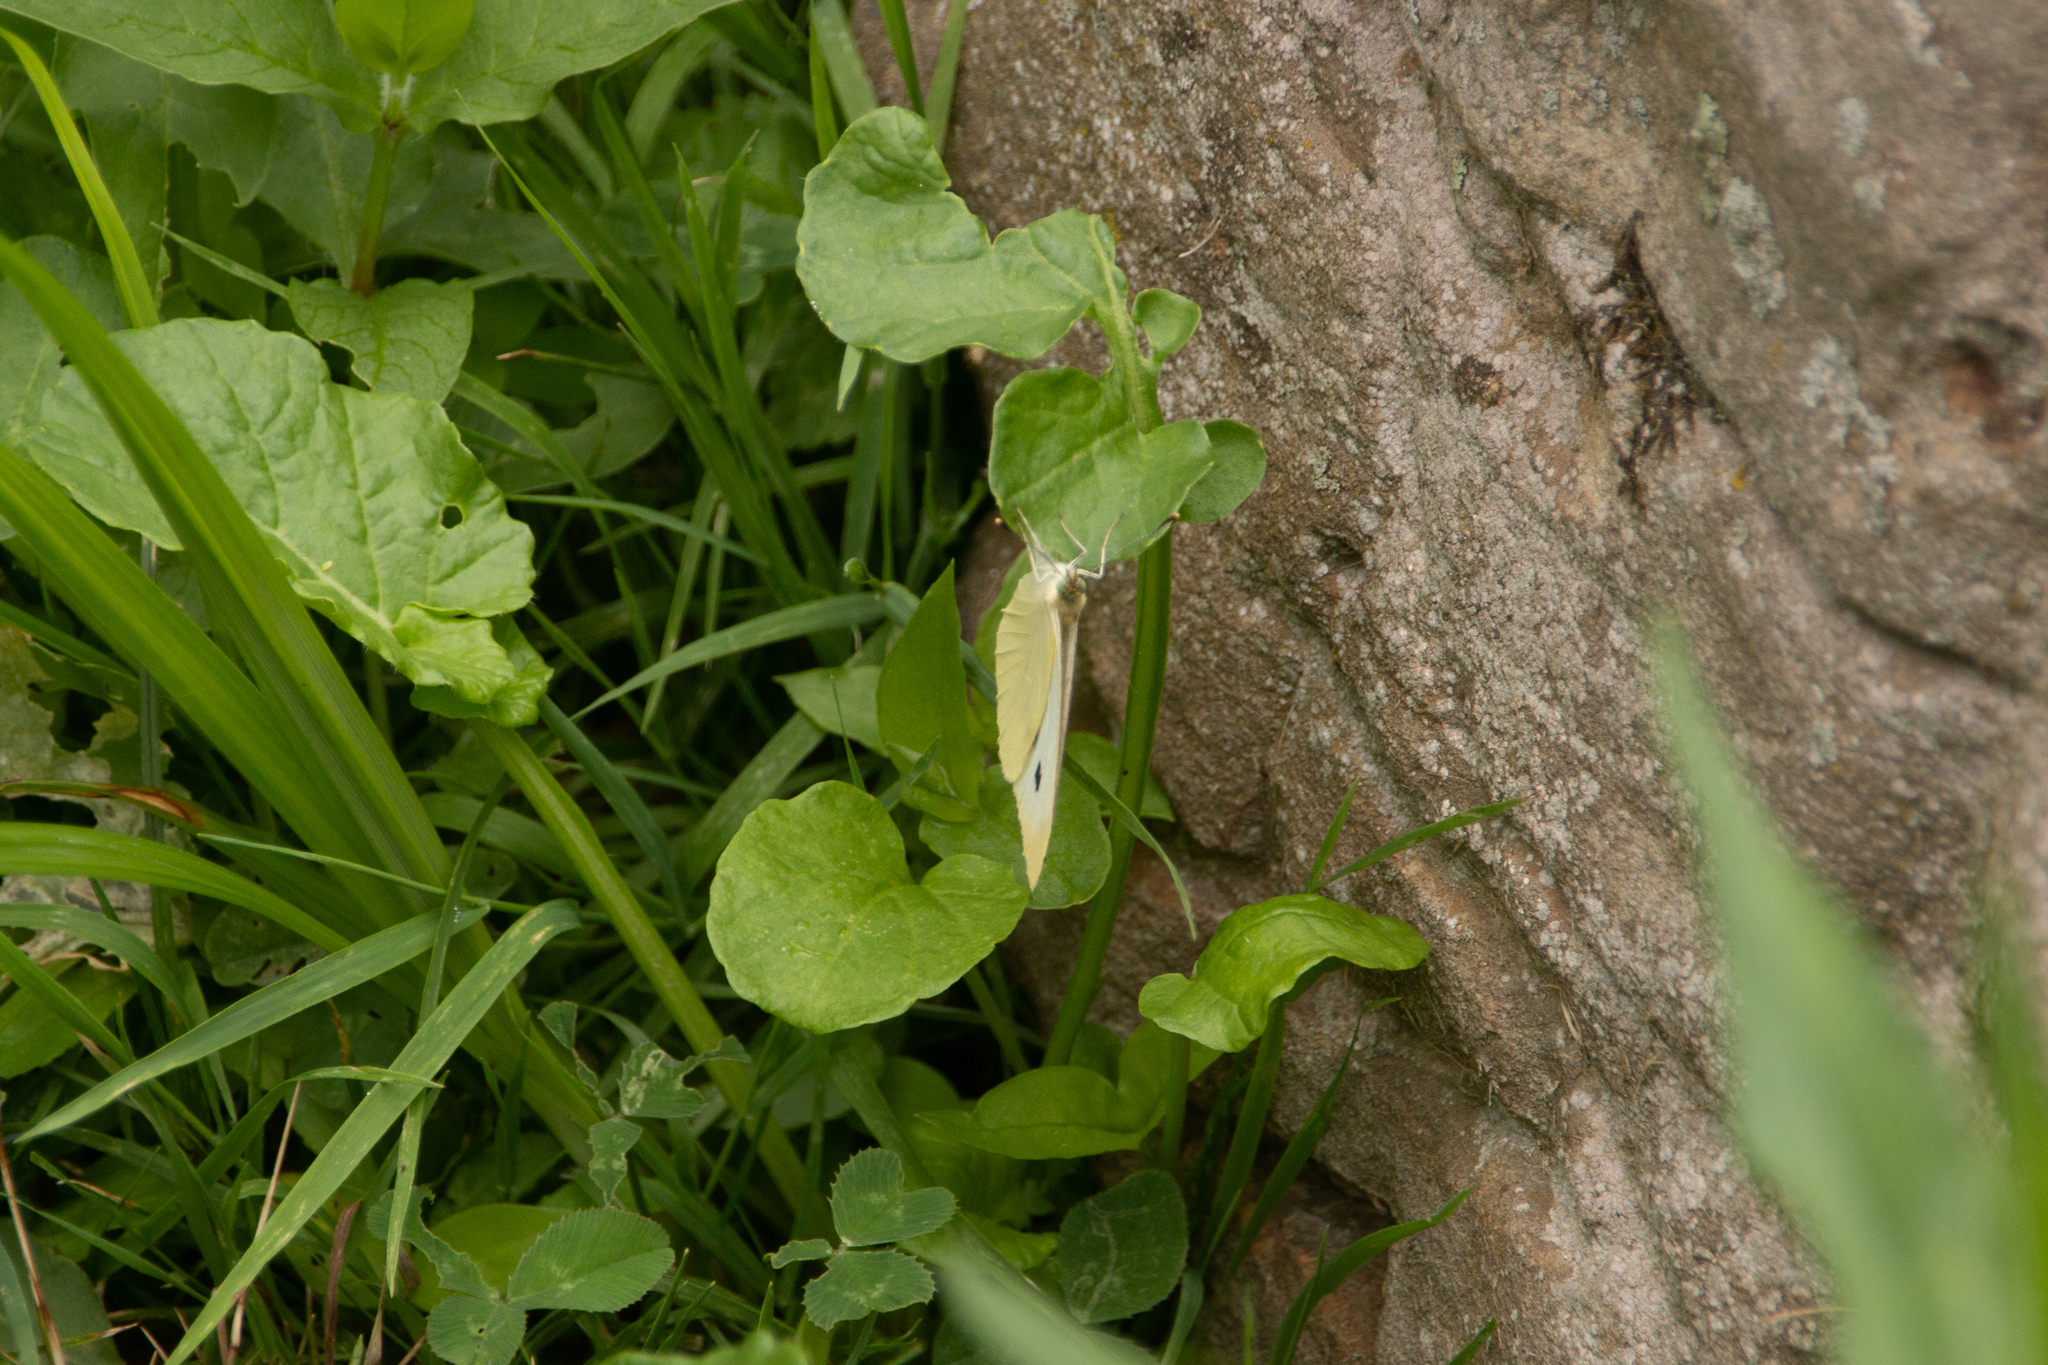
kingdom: Animalia
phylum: Arthropoda
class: Insecta
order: Lepidoptera
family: Pieridae
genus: Pieris
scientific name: Pieris rapae
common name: Small white
